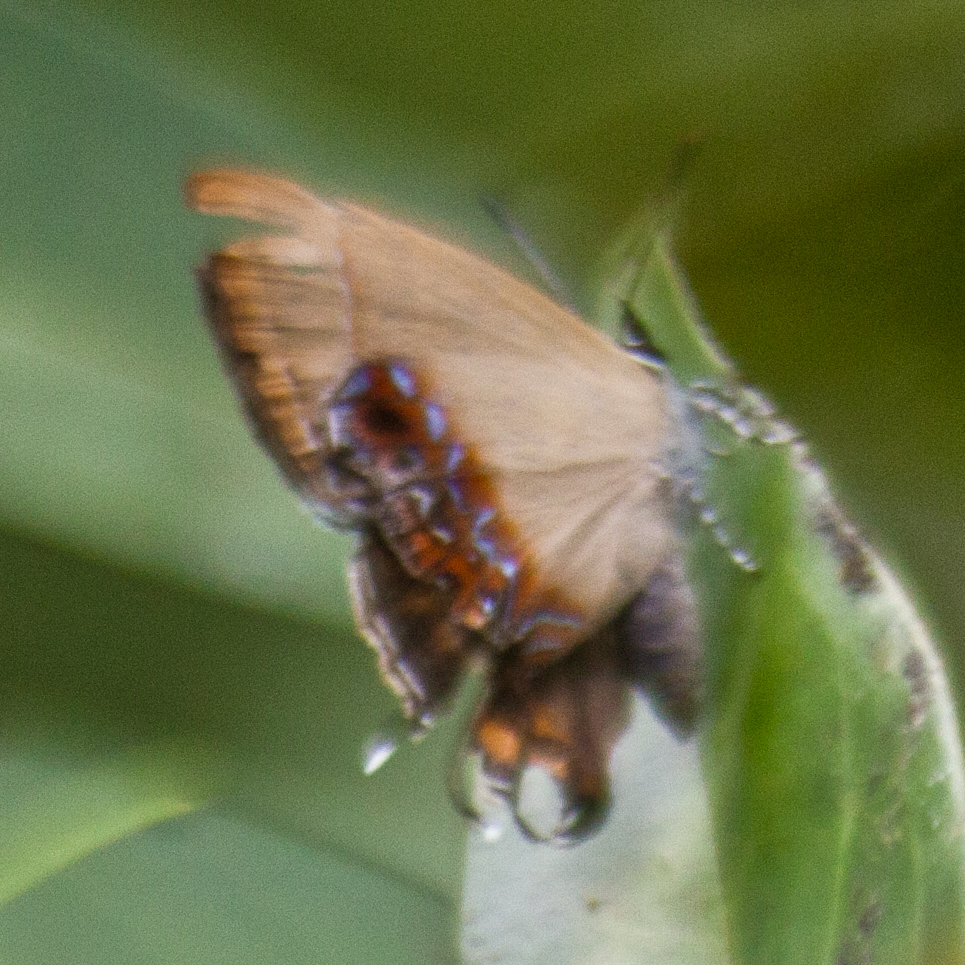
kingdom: Animalia
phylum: Arthropoda
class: Insecta
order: Lepidoptera
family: Lycaenidae
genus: Semanga
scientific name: Semanga superba
